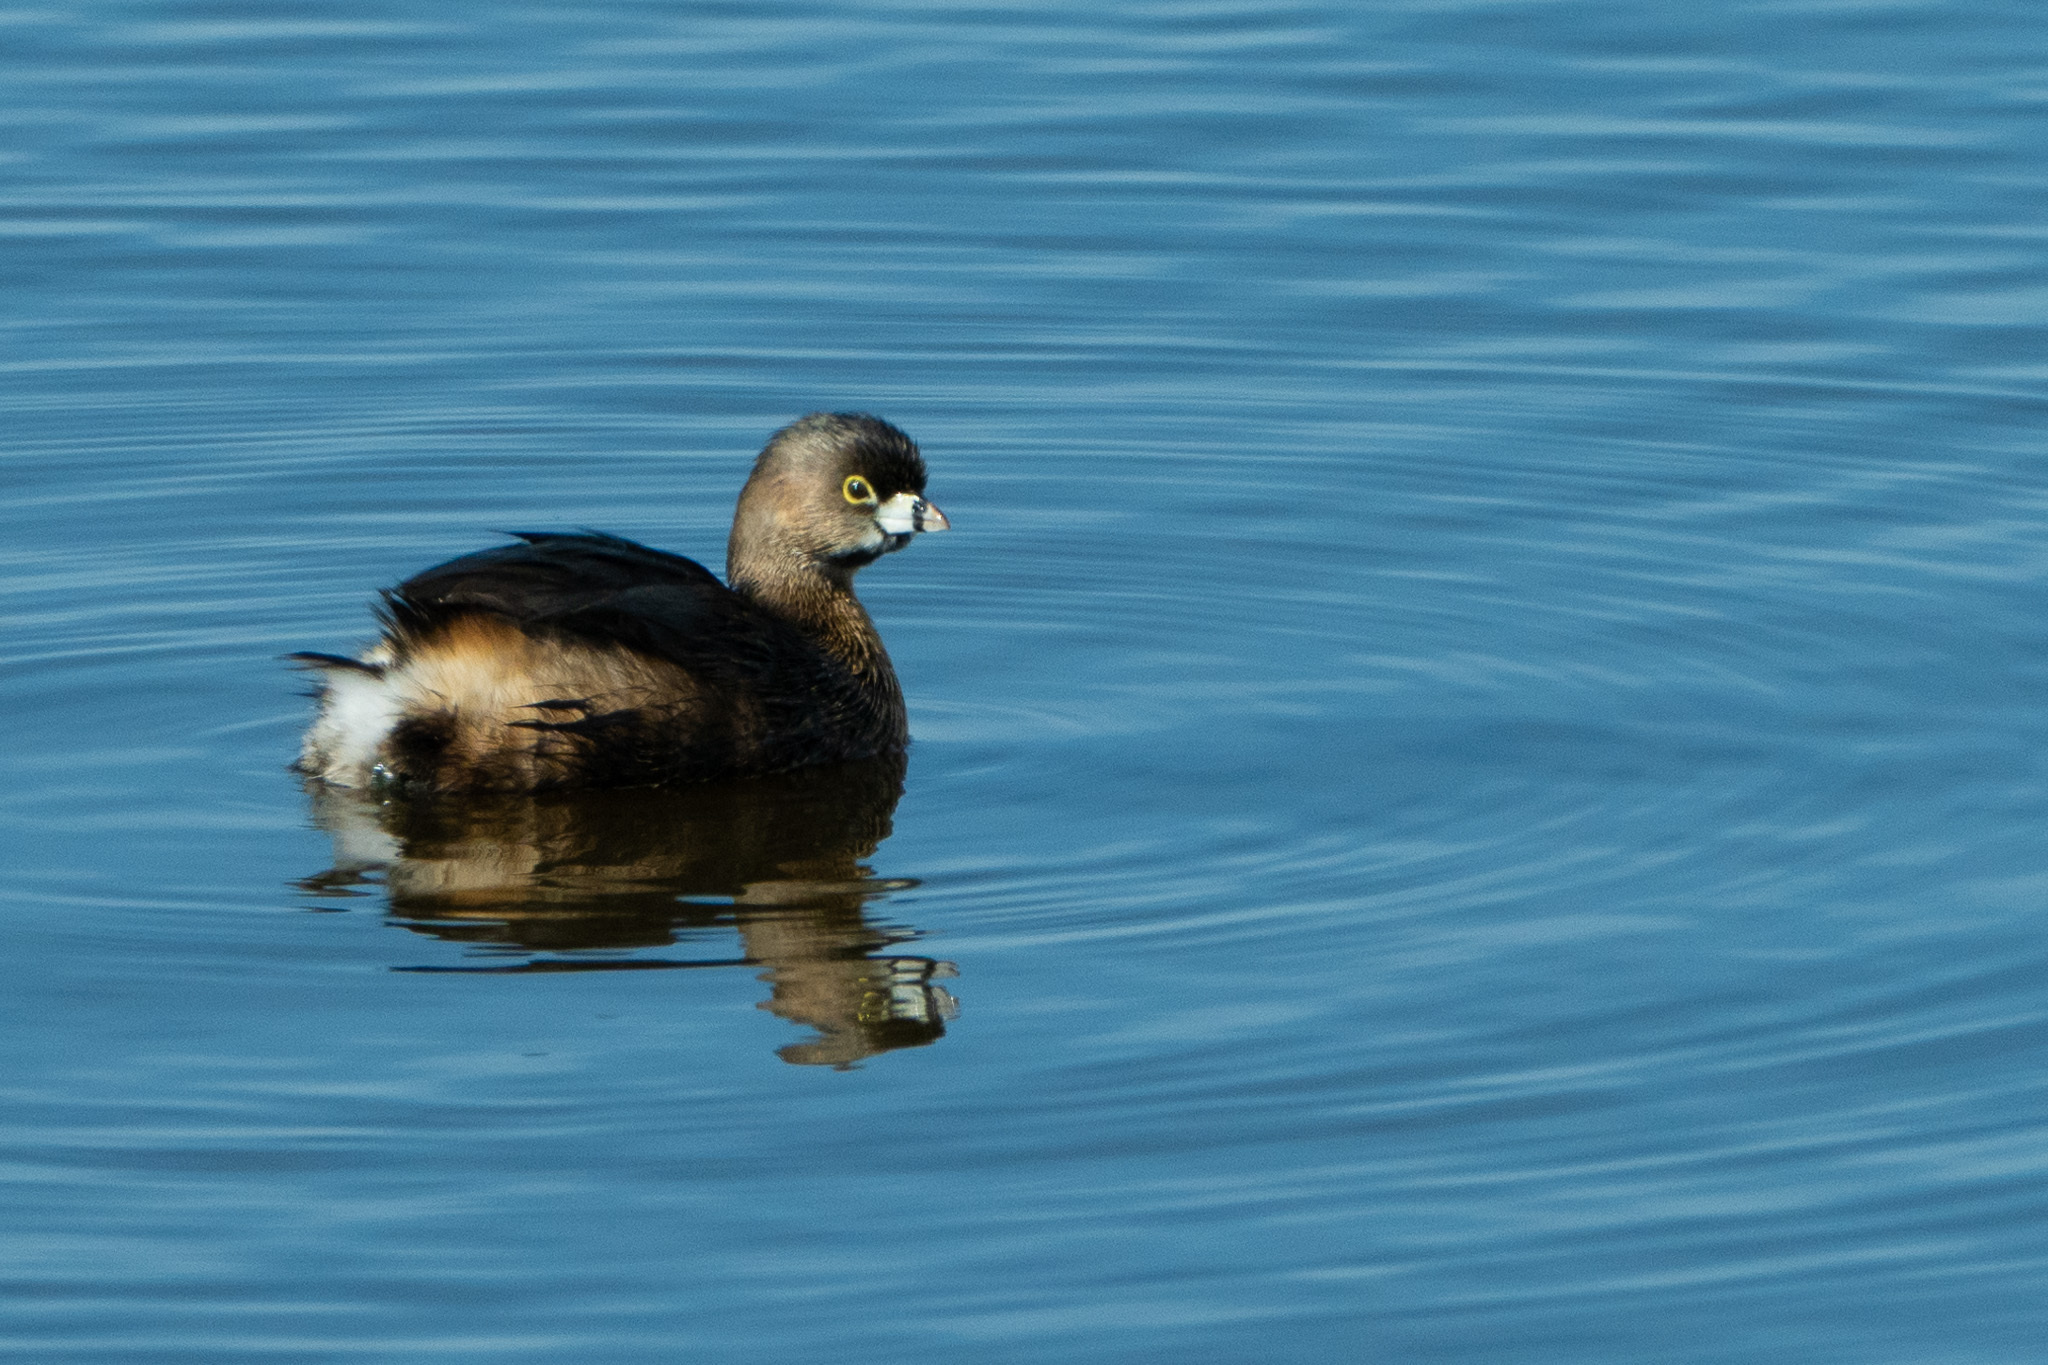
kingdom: Animalia
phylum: Chordata
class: Aves
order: Podicipediformes
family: Podicipedidae
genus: Podilymbus
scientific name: Podilymbus podiceps
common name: Pied-billed grebe
